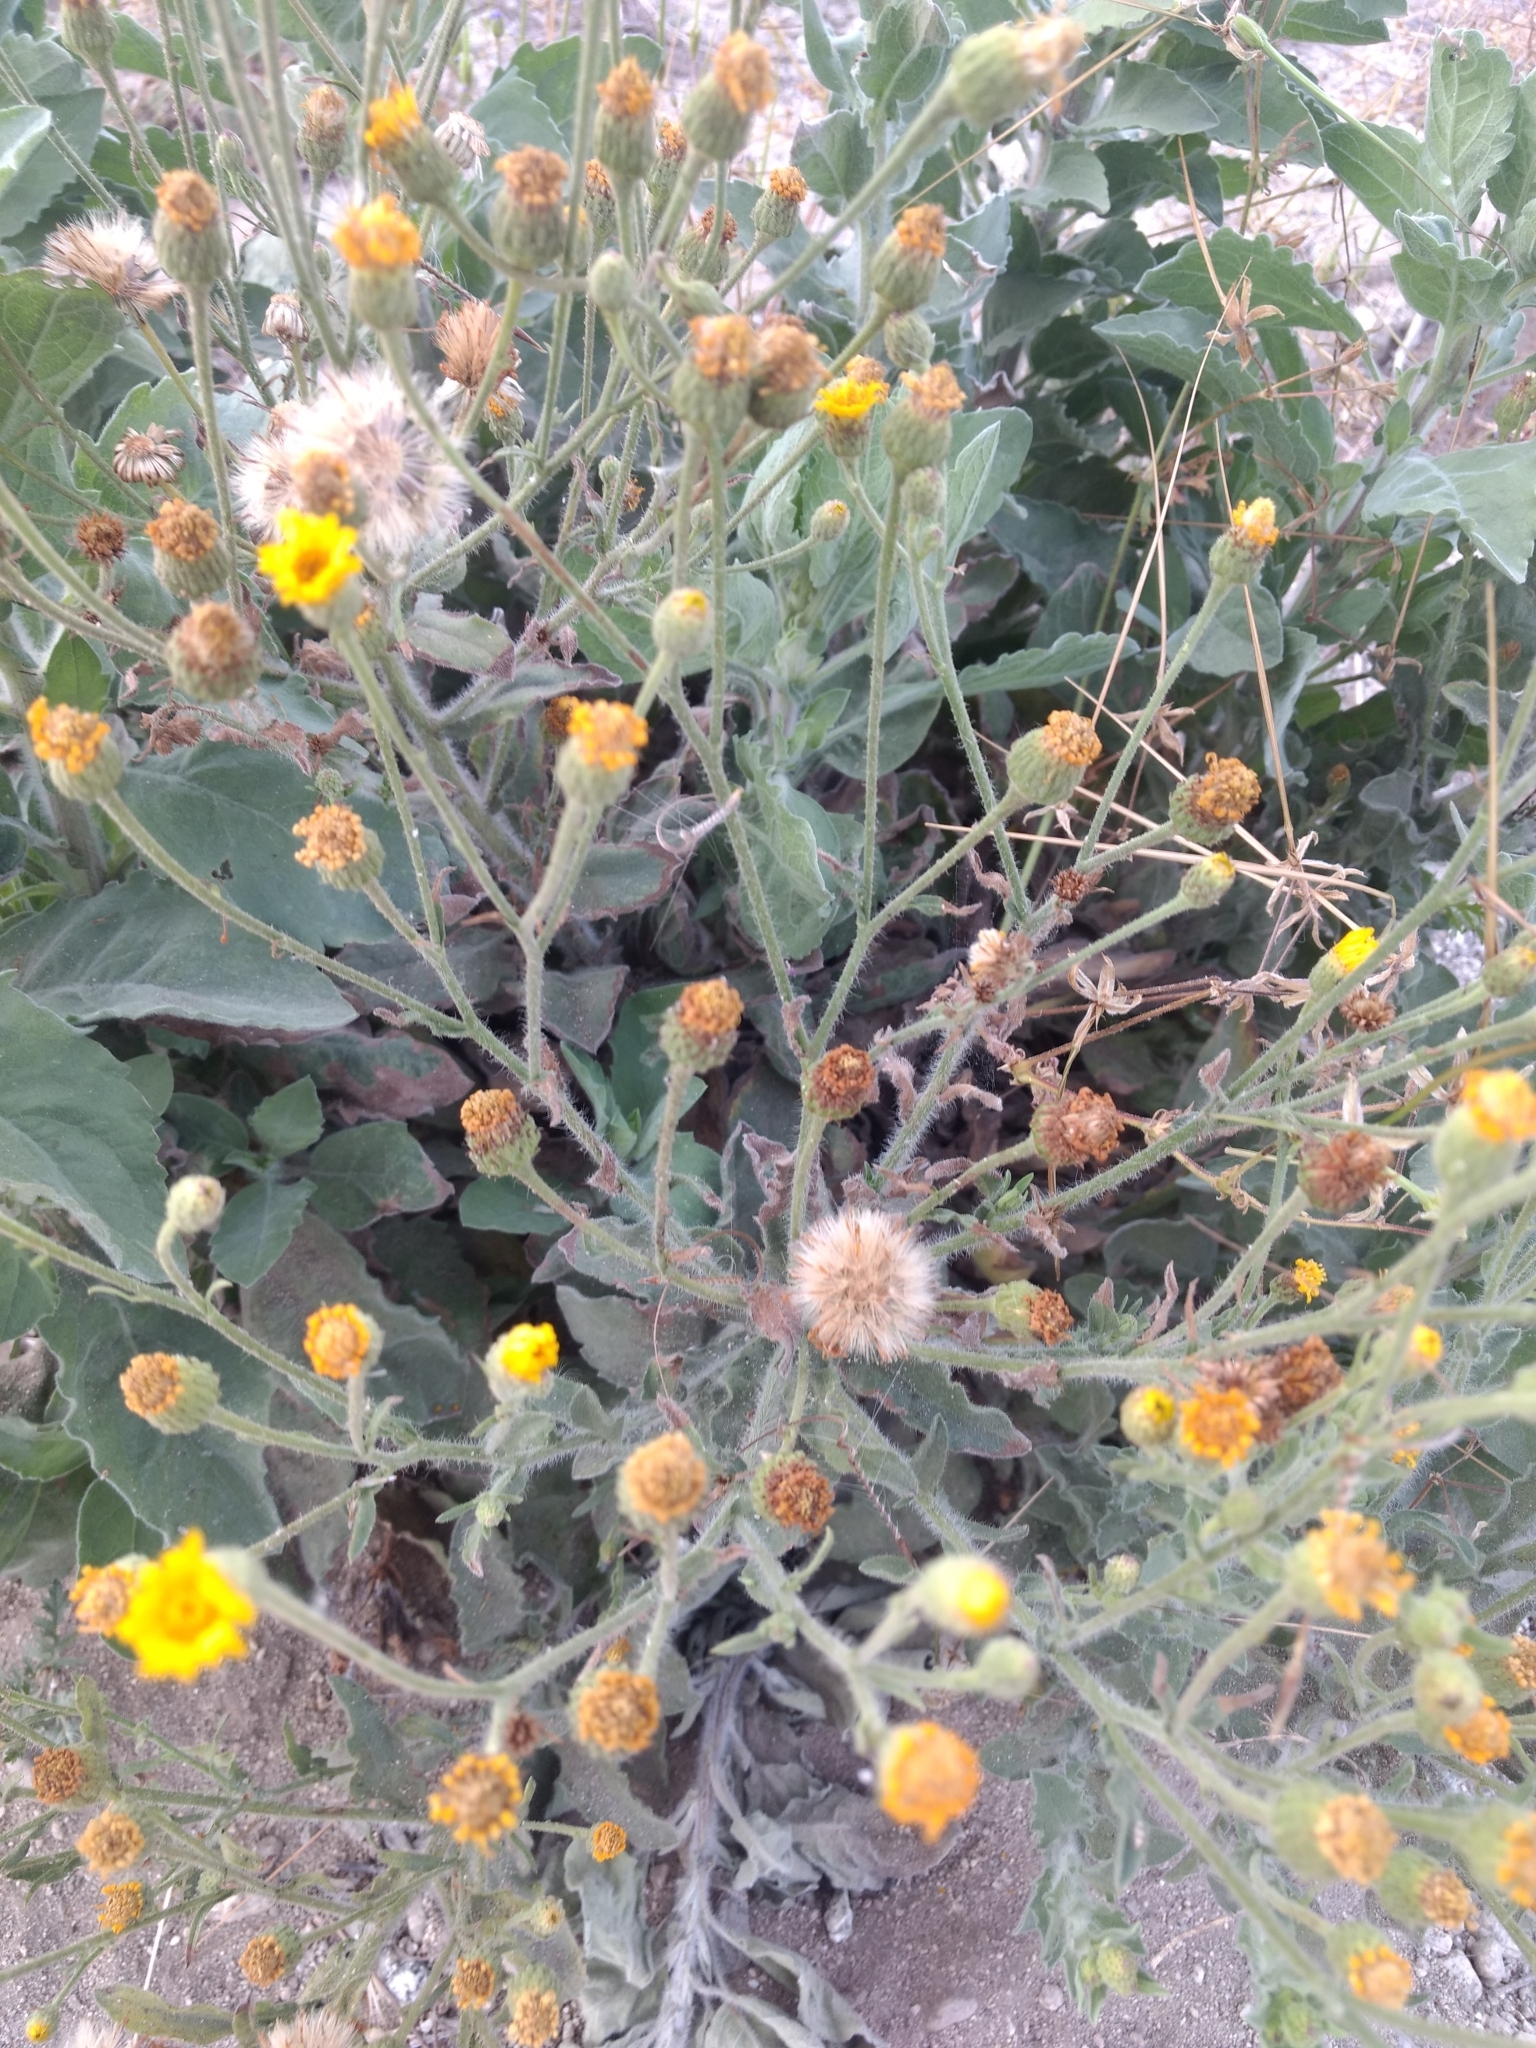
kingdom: Plantae
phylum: Tracheophyta
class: Magnoliopsida
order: Asterales
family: Asteraceae
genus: Heterotheca
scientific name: Heterotheca grandiflora
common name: Telegraphweed
